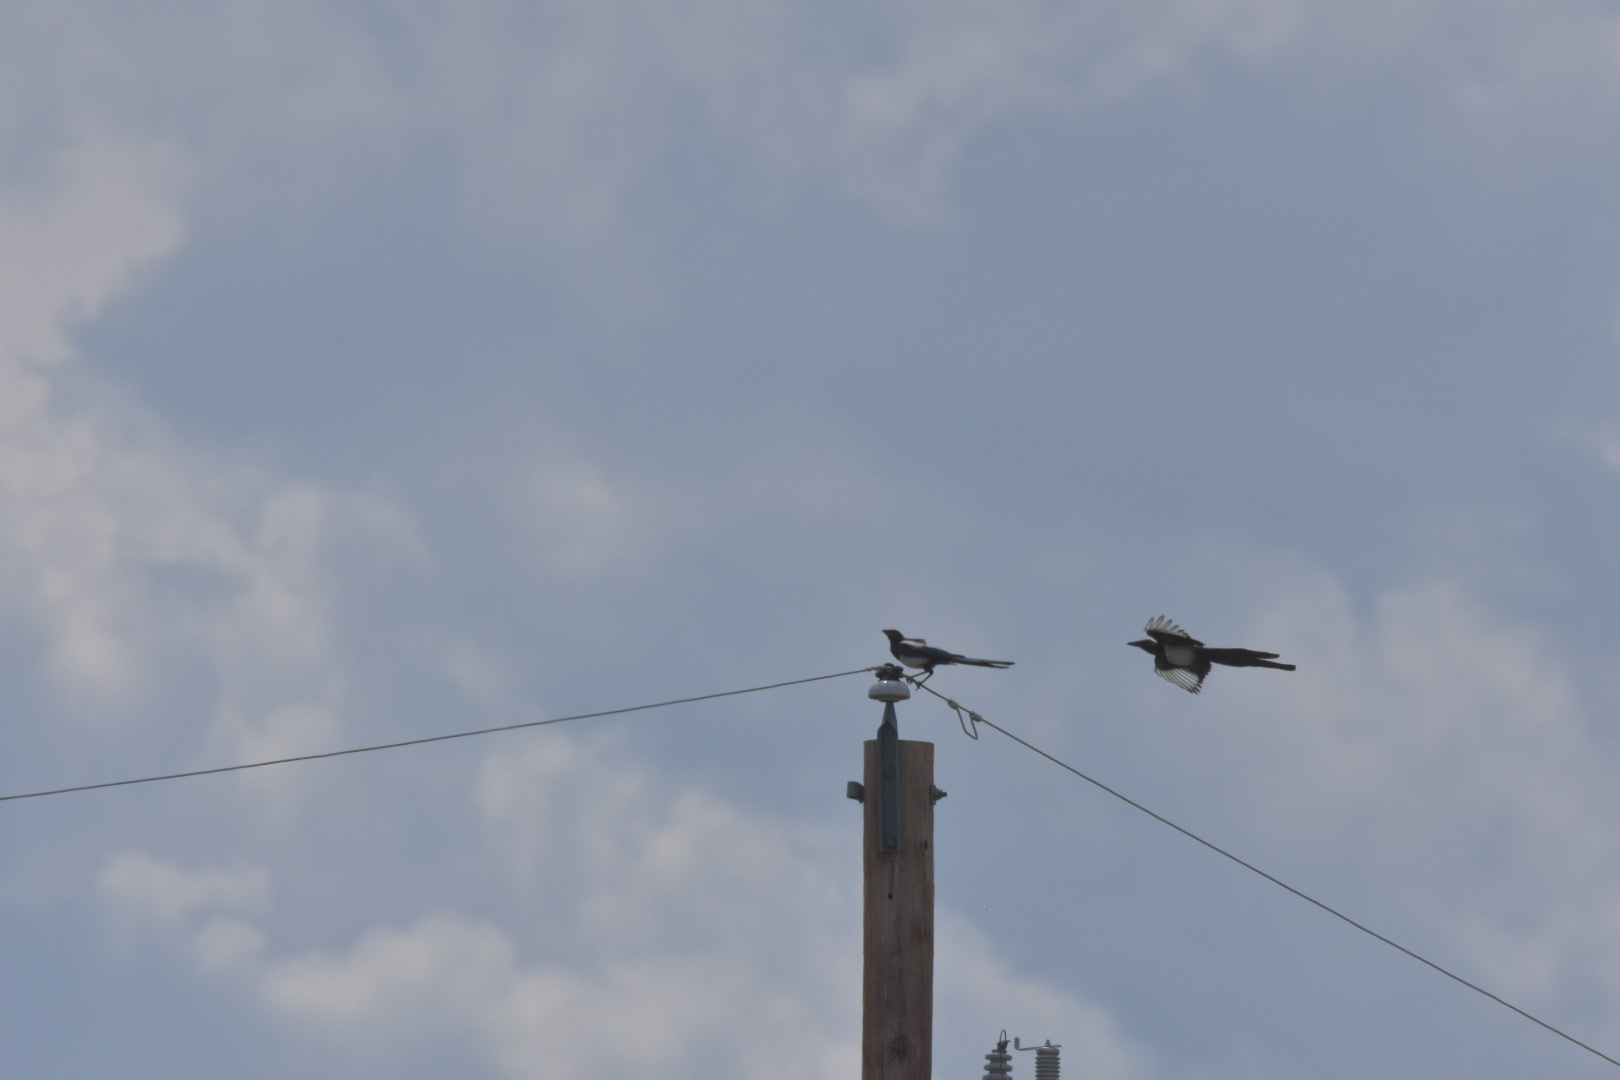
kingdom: Animalia
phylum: Chordata
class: Aves
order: Passeriformes
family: Corvidae
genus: Pica
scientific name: Pica hudsonia
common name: Black-billed magpie
